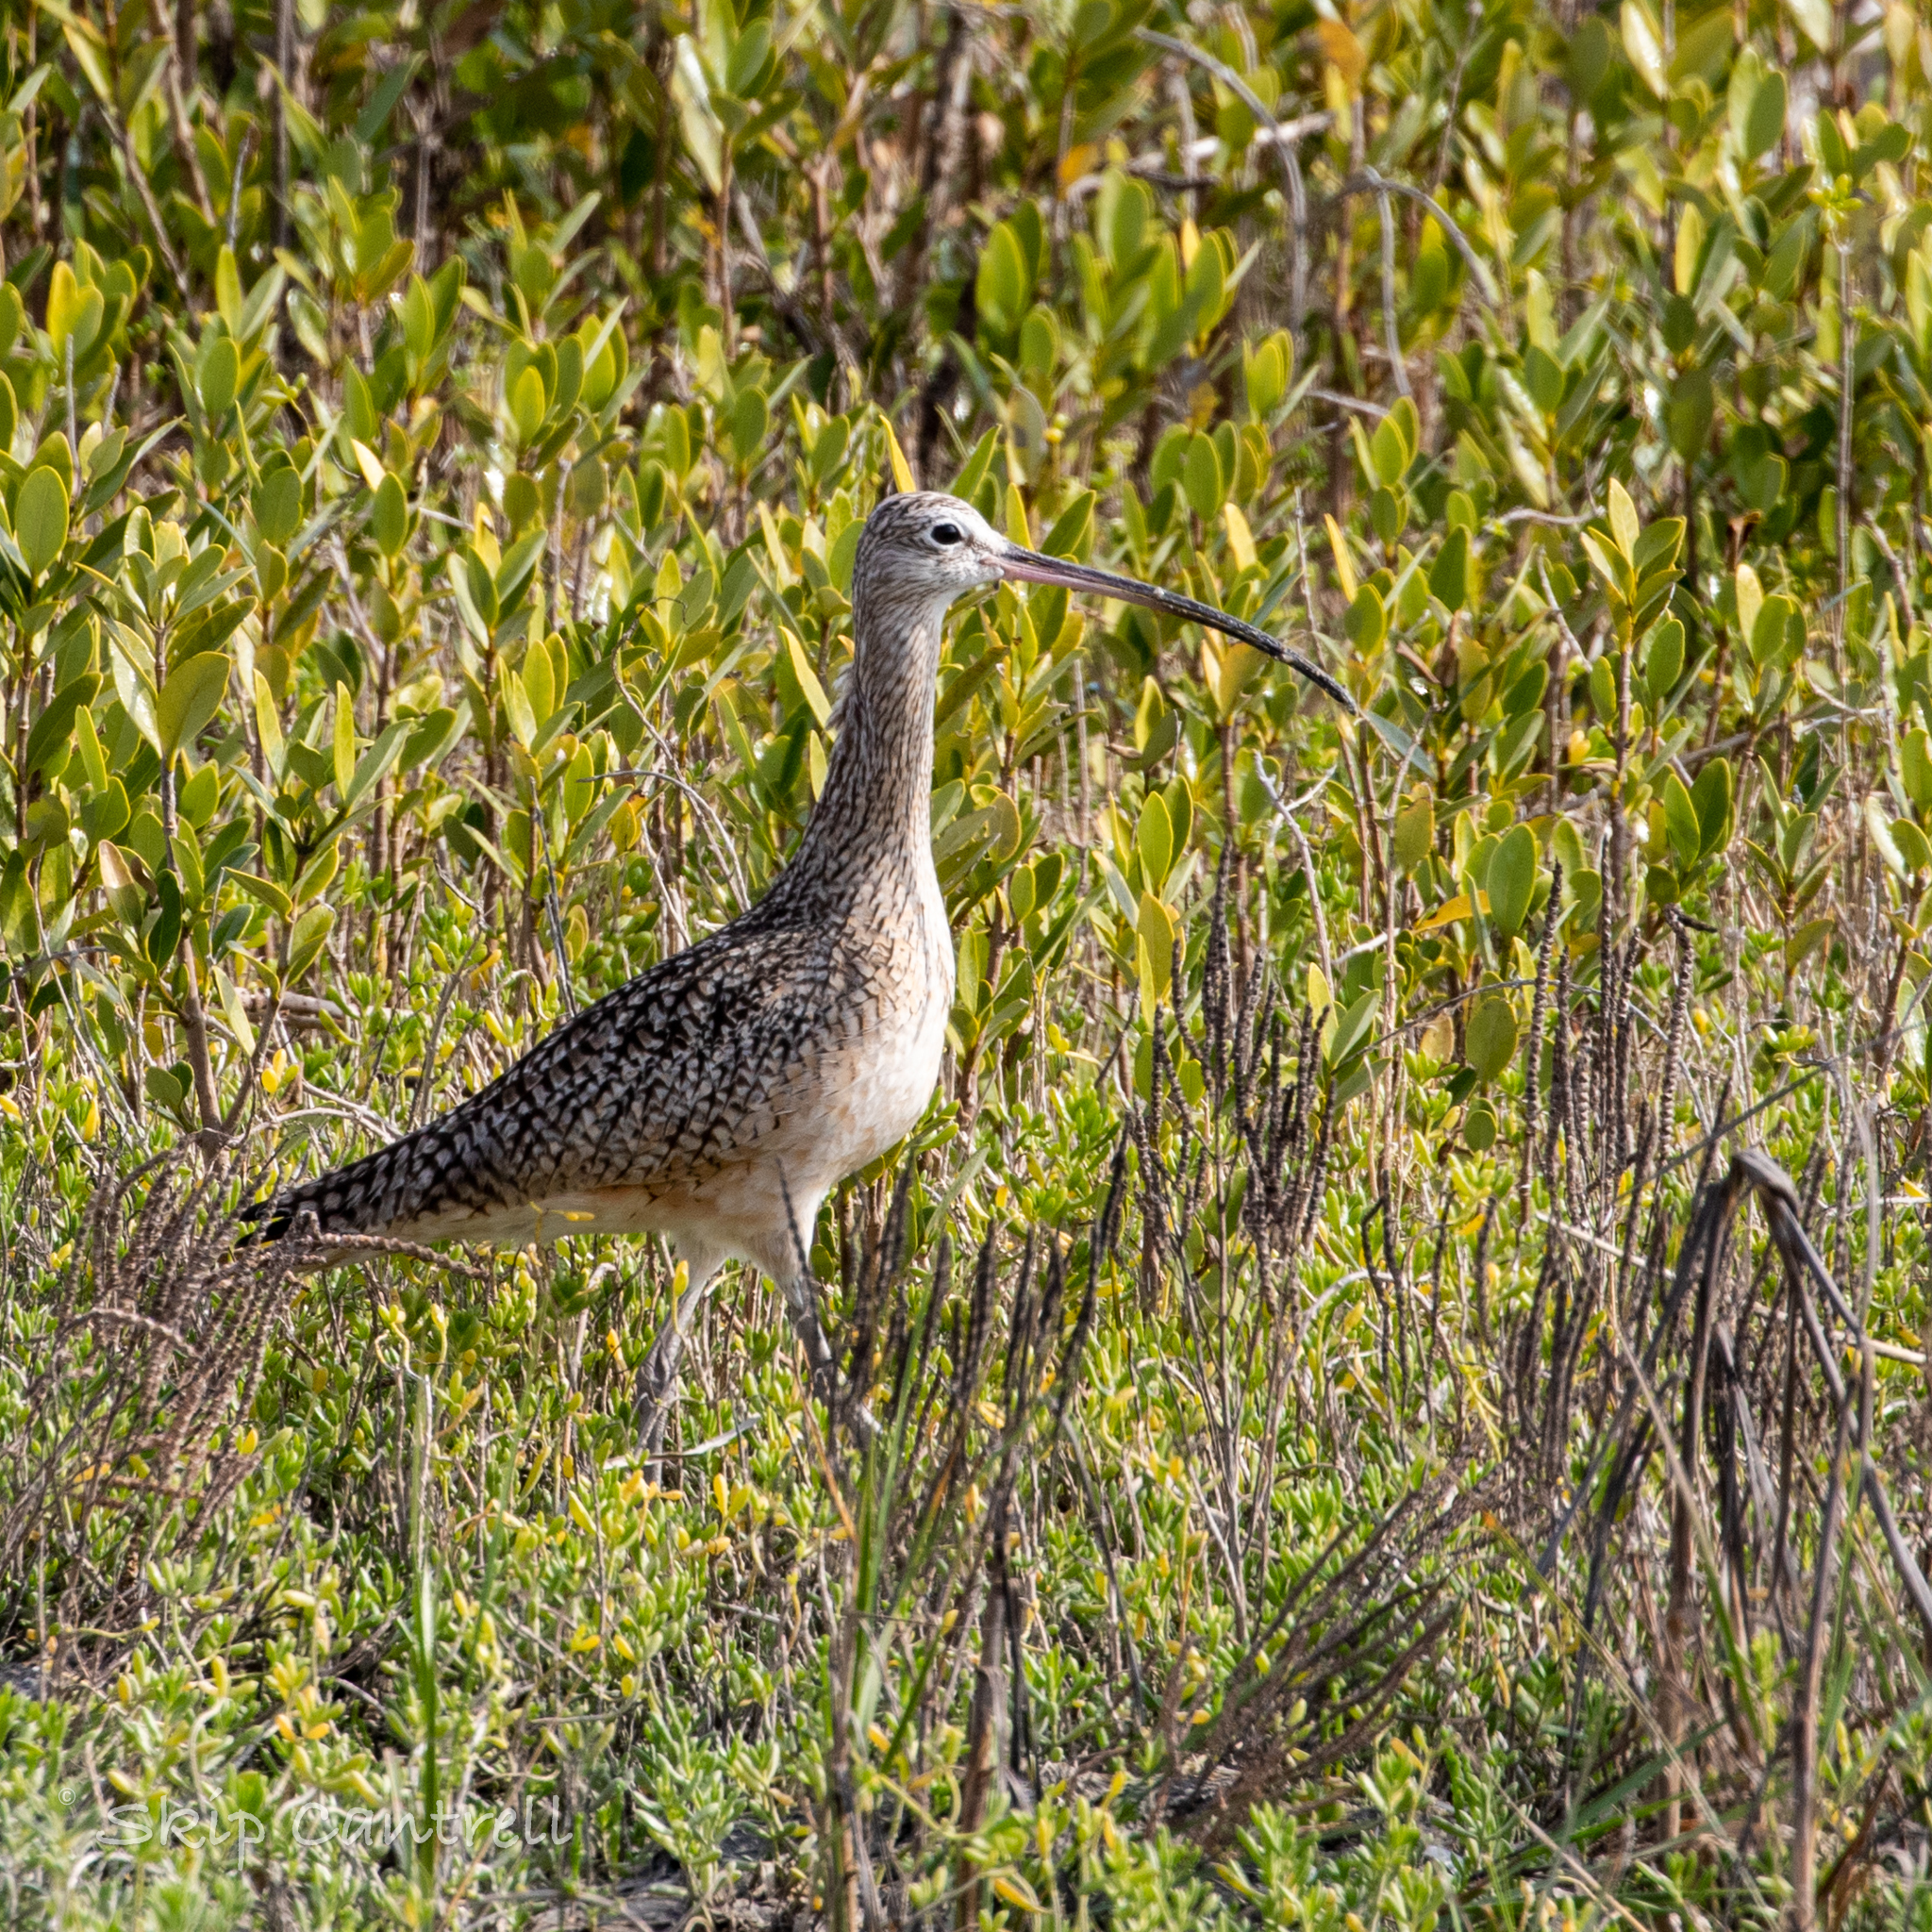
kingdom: Animalia
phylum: Chordata
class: Aves
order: Charadriiformes
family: Scolopacidae
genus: Numenius
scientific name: Numenius americanus
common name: Long-billed curlew
